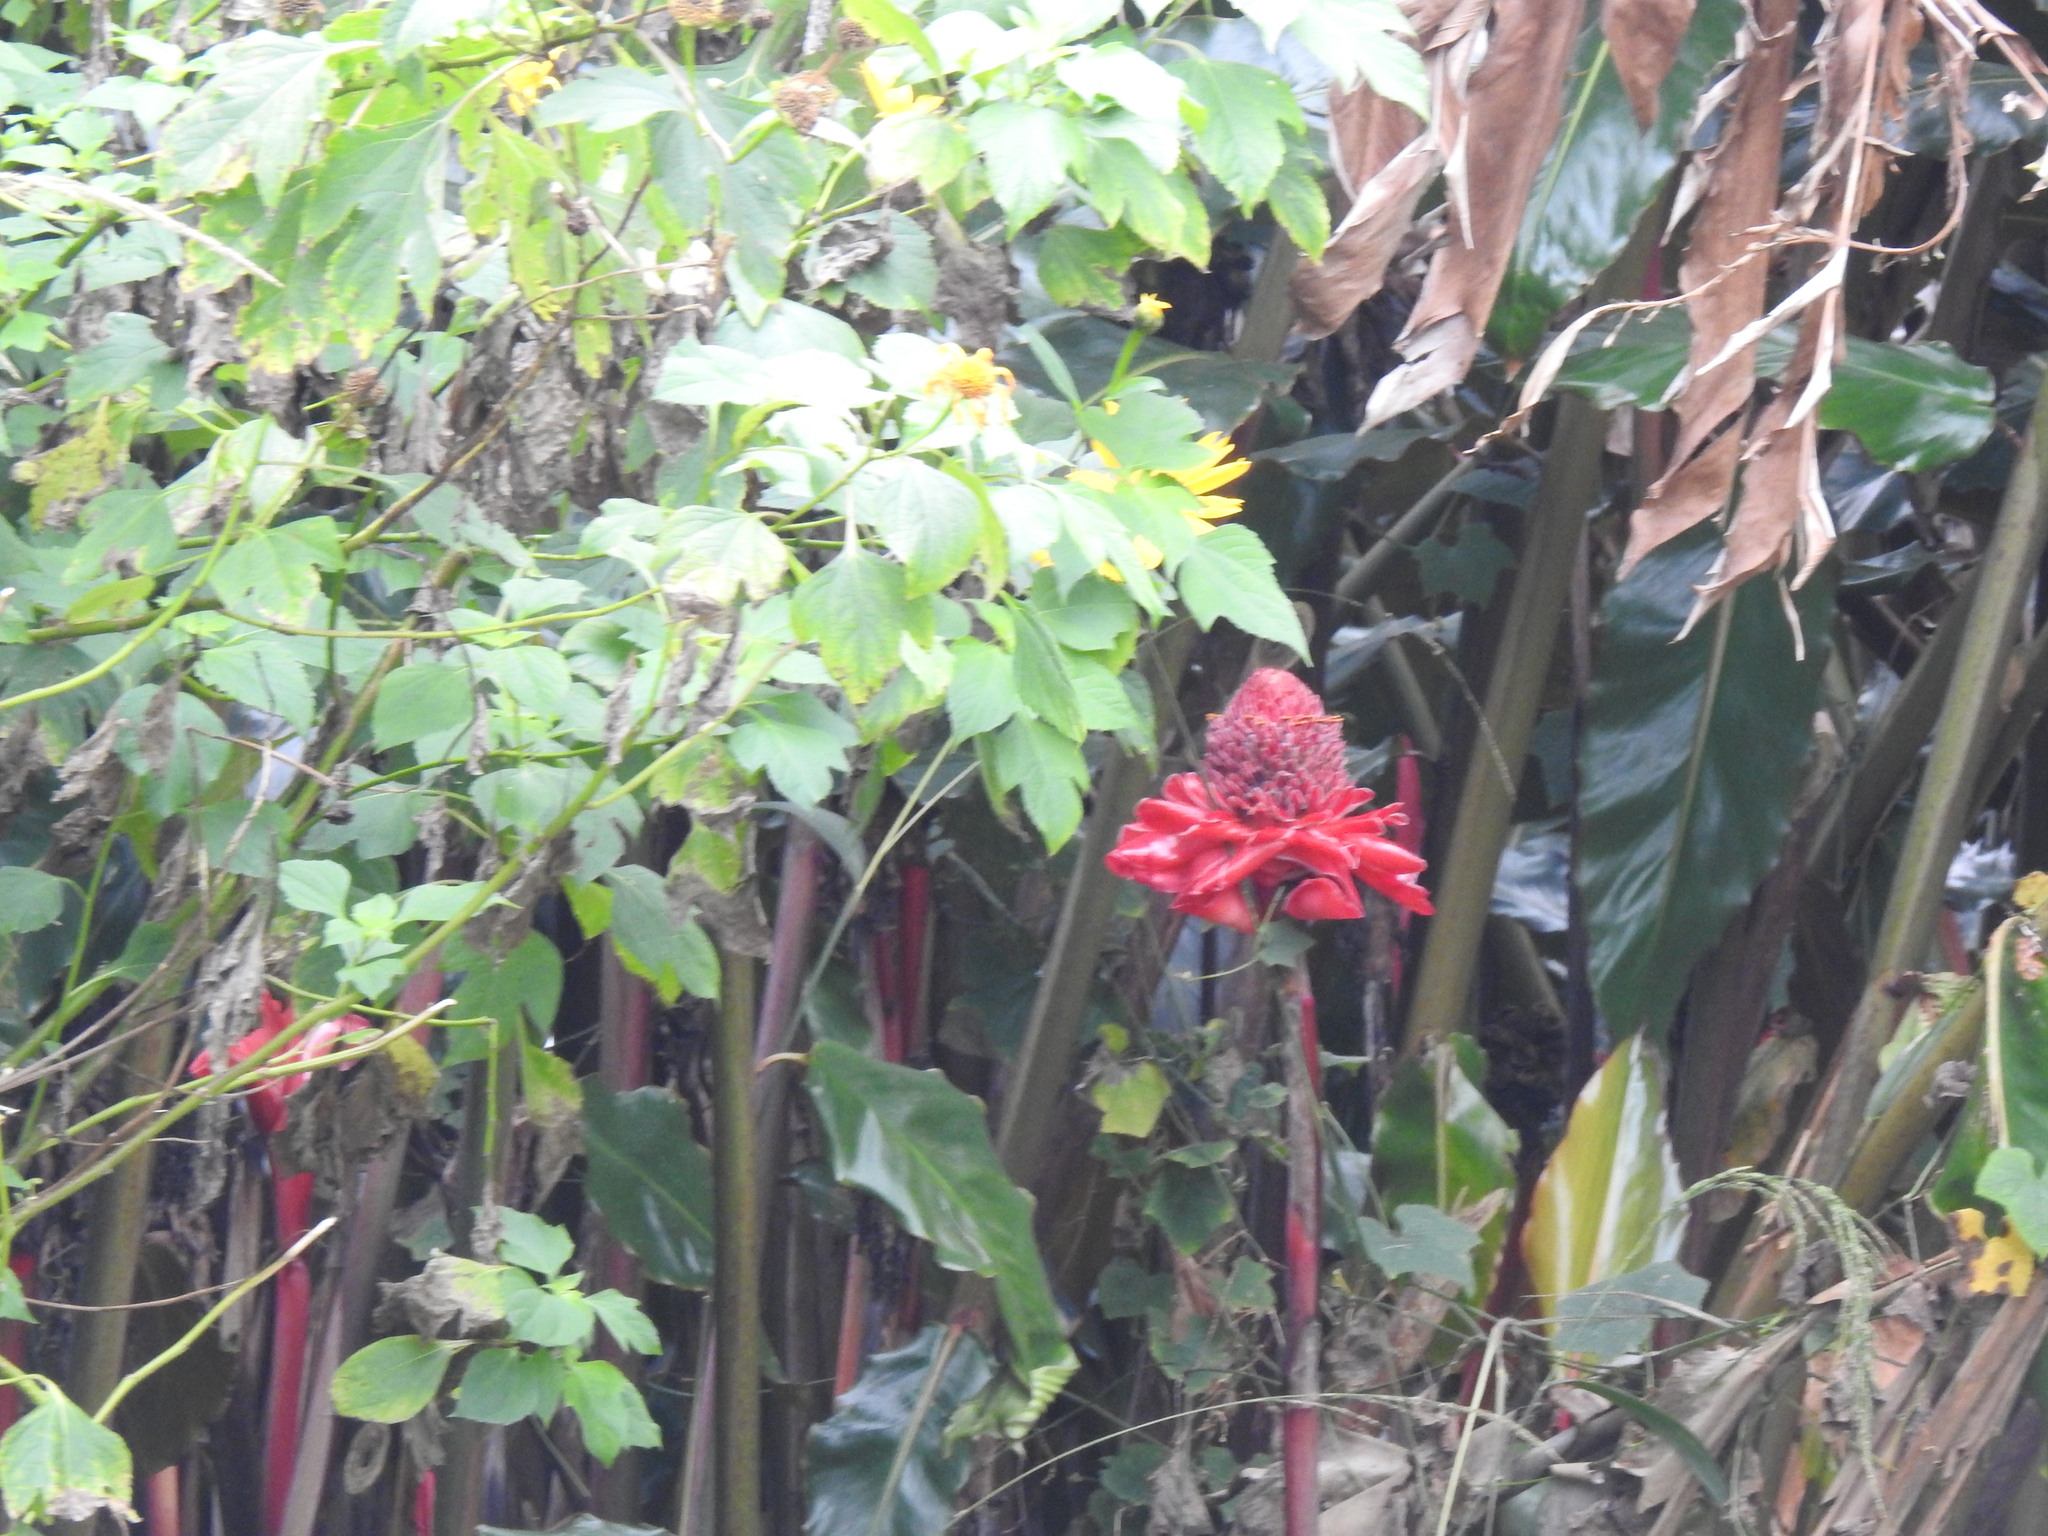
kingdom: Plantae
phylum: Tracheophyta
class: Liliopsida
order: Zingiberales
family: Zingiberaceae
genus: Etlingera
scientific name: Etlingera elatior
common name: Philippine waxflower
